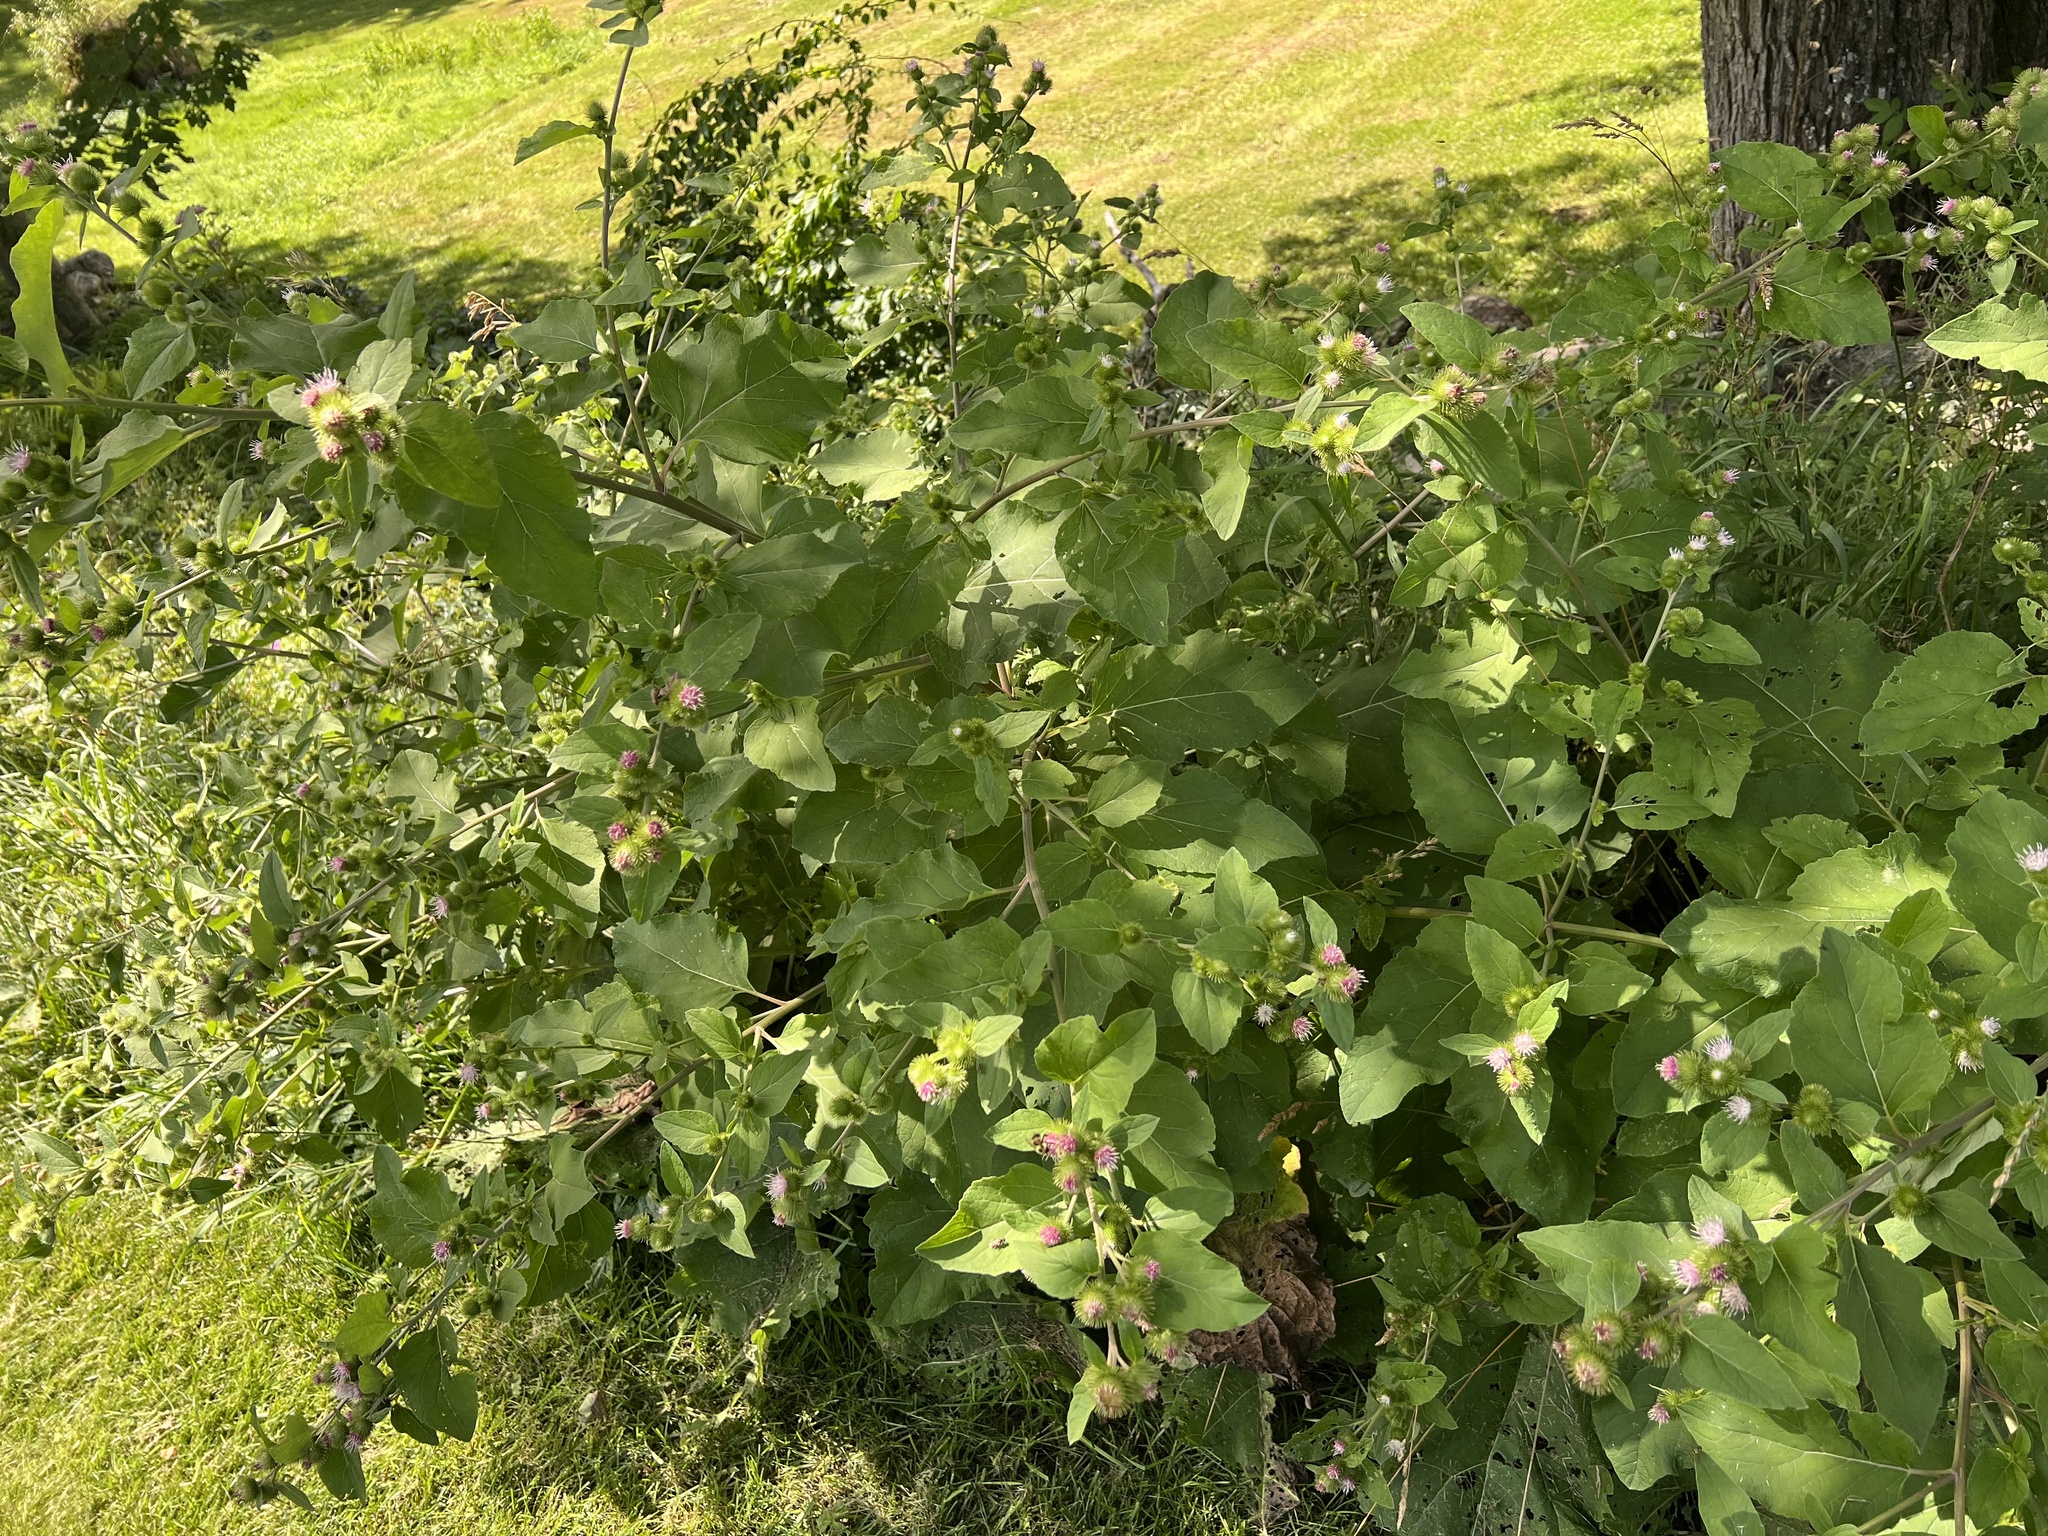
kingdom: Plantae
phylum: Tracheophyta
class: Magnoliopsida
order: Asterales
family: Asteraceae
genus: Arctium
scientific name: Arctium minus
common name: Lesser burdock
